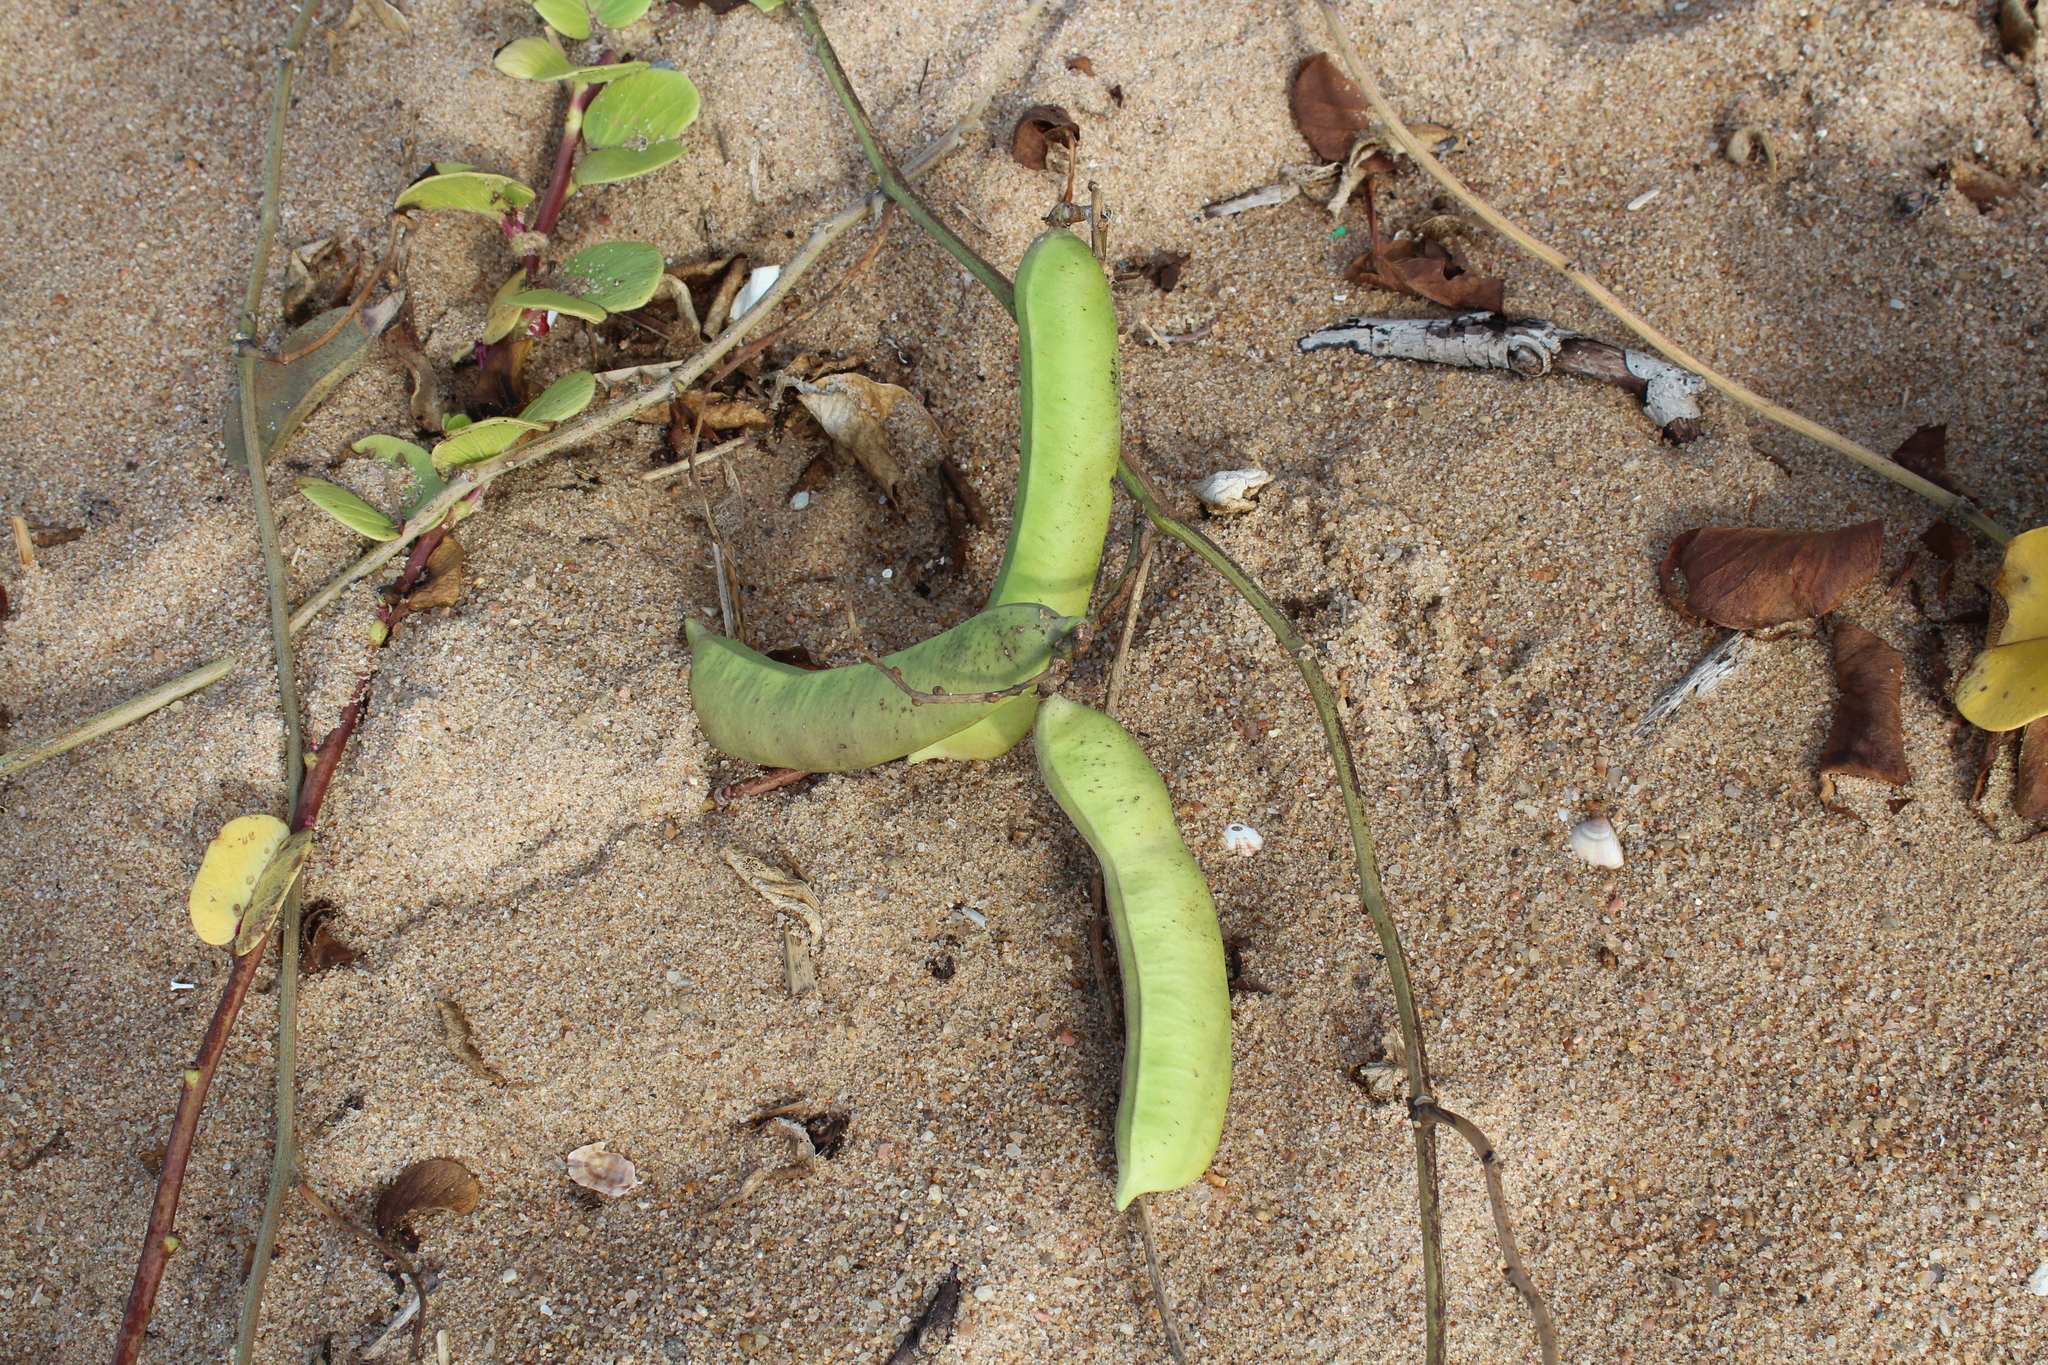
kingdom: Plantae
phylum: Tracheophyta
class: Magnoliopsida
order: Fabales
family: Fabaceae
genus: Canavalia
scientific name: Canavalia rosea
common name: Beach-bean
